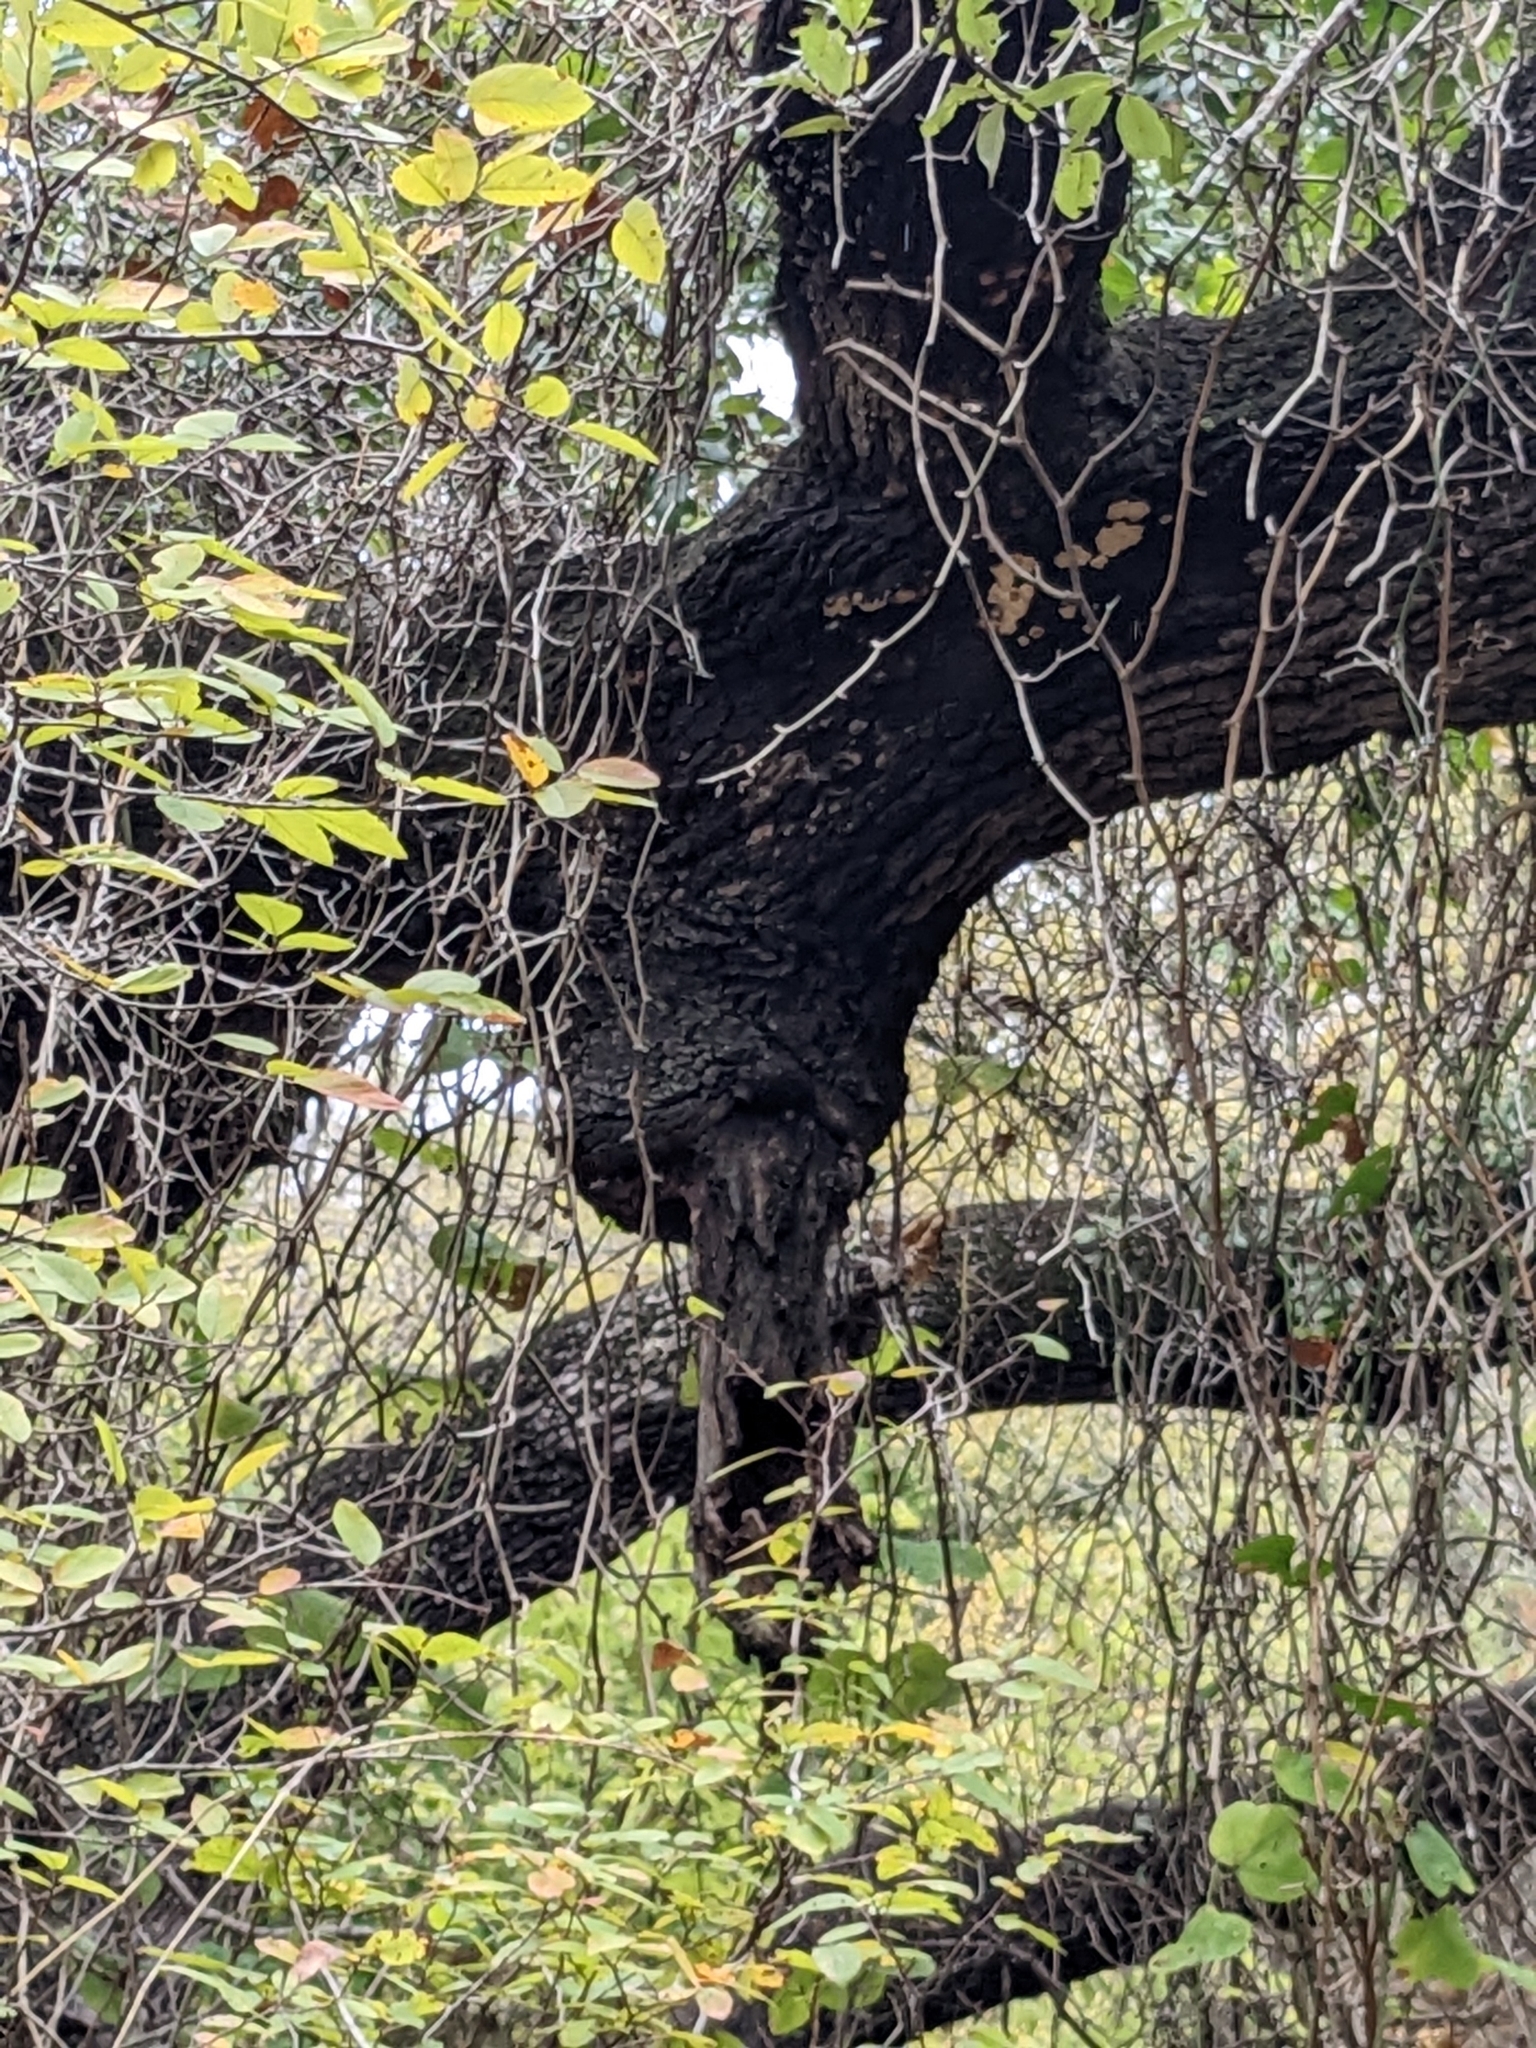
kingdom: Animalia
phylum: Arthropoda
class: Insecta
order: Hymenoptera
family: Apidae
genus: Apis
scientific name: Apis mellifera
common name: Honey bee
